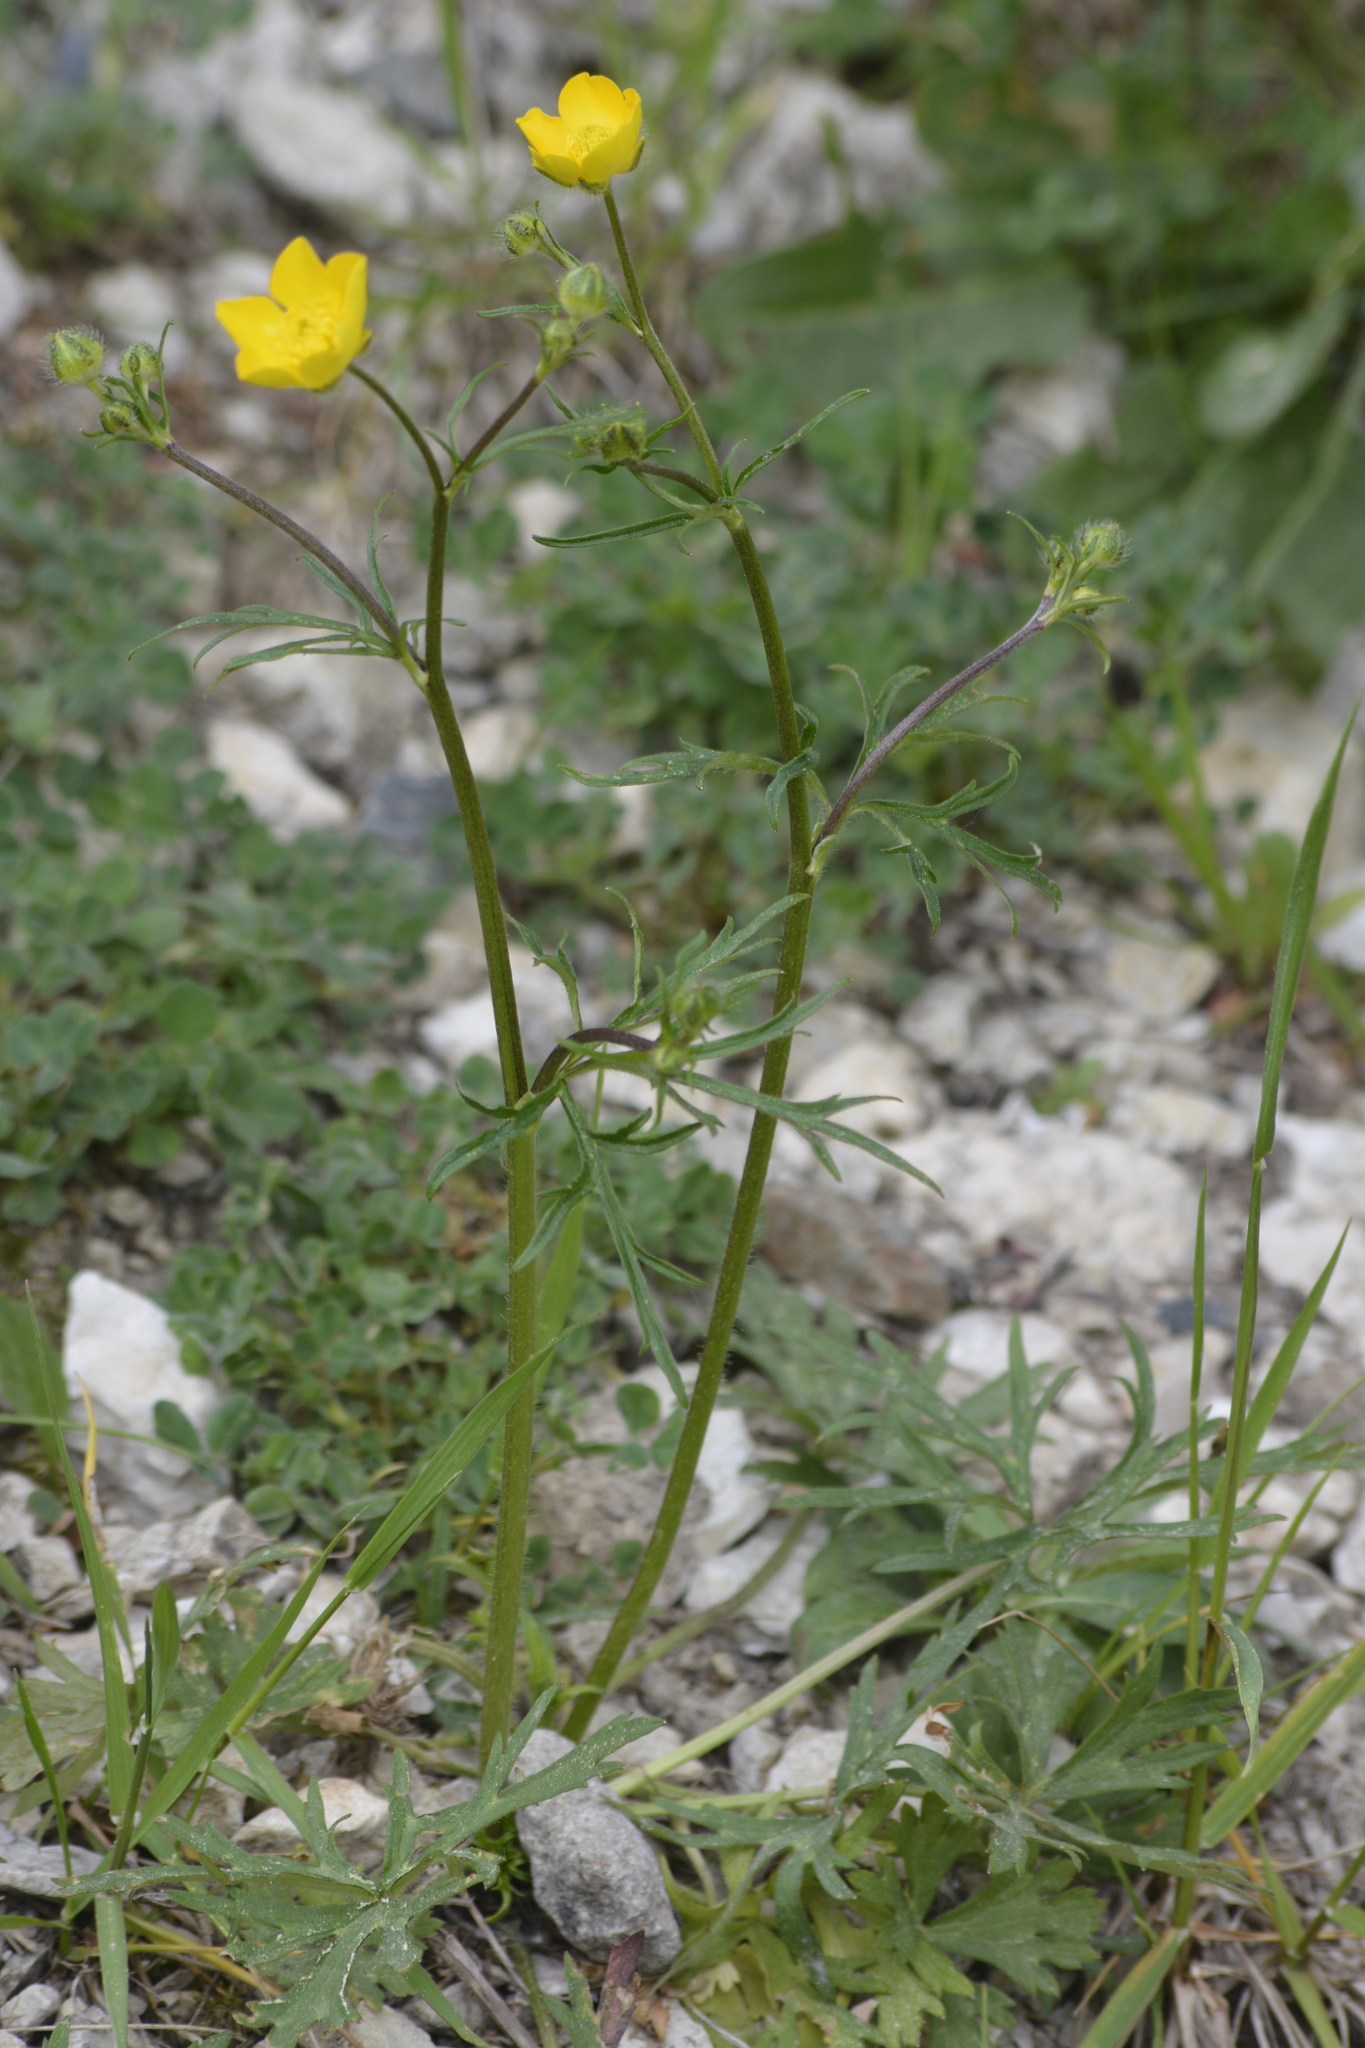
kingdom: Plantae
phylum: Tracheophyta
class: Magnoliopsida
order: Ranunculales
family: Ranunculaceae
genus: Ranunculus
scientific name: Ranunculus polyanthemos
